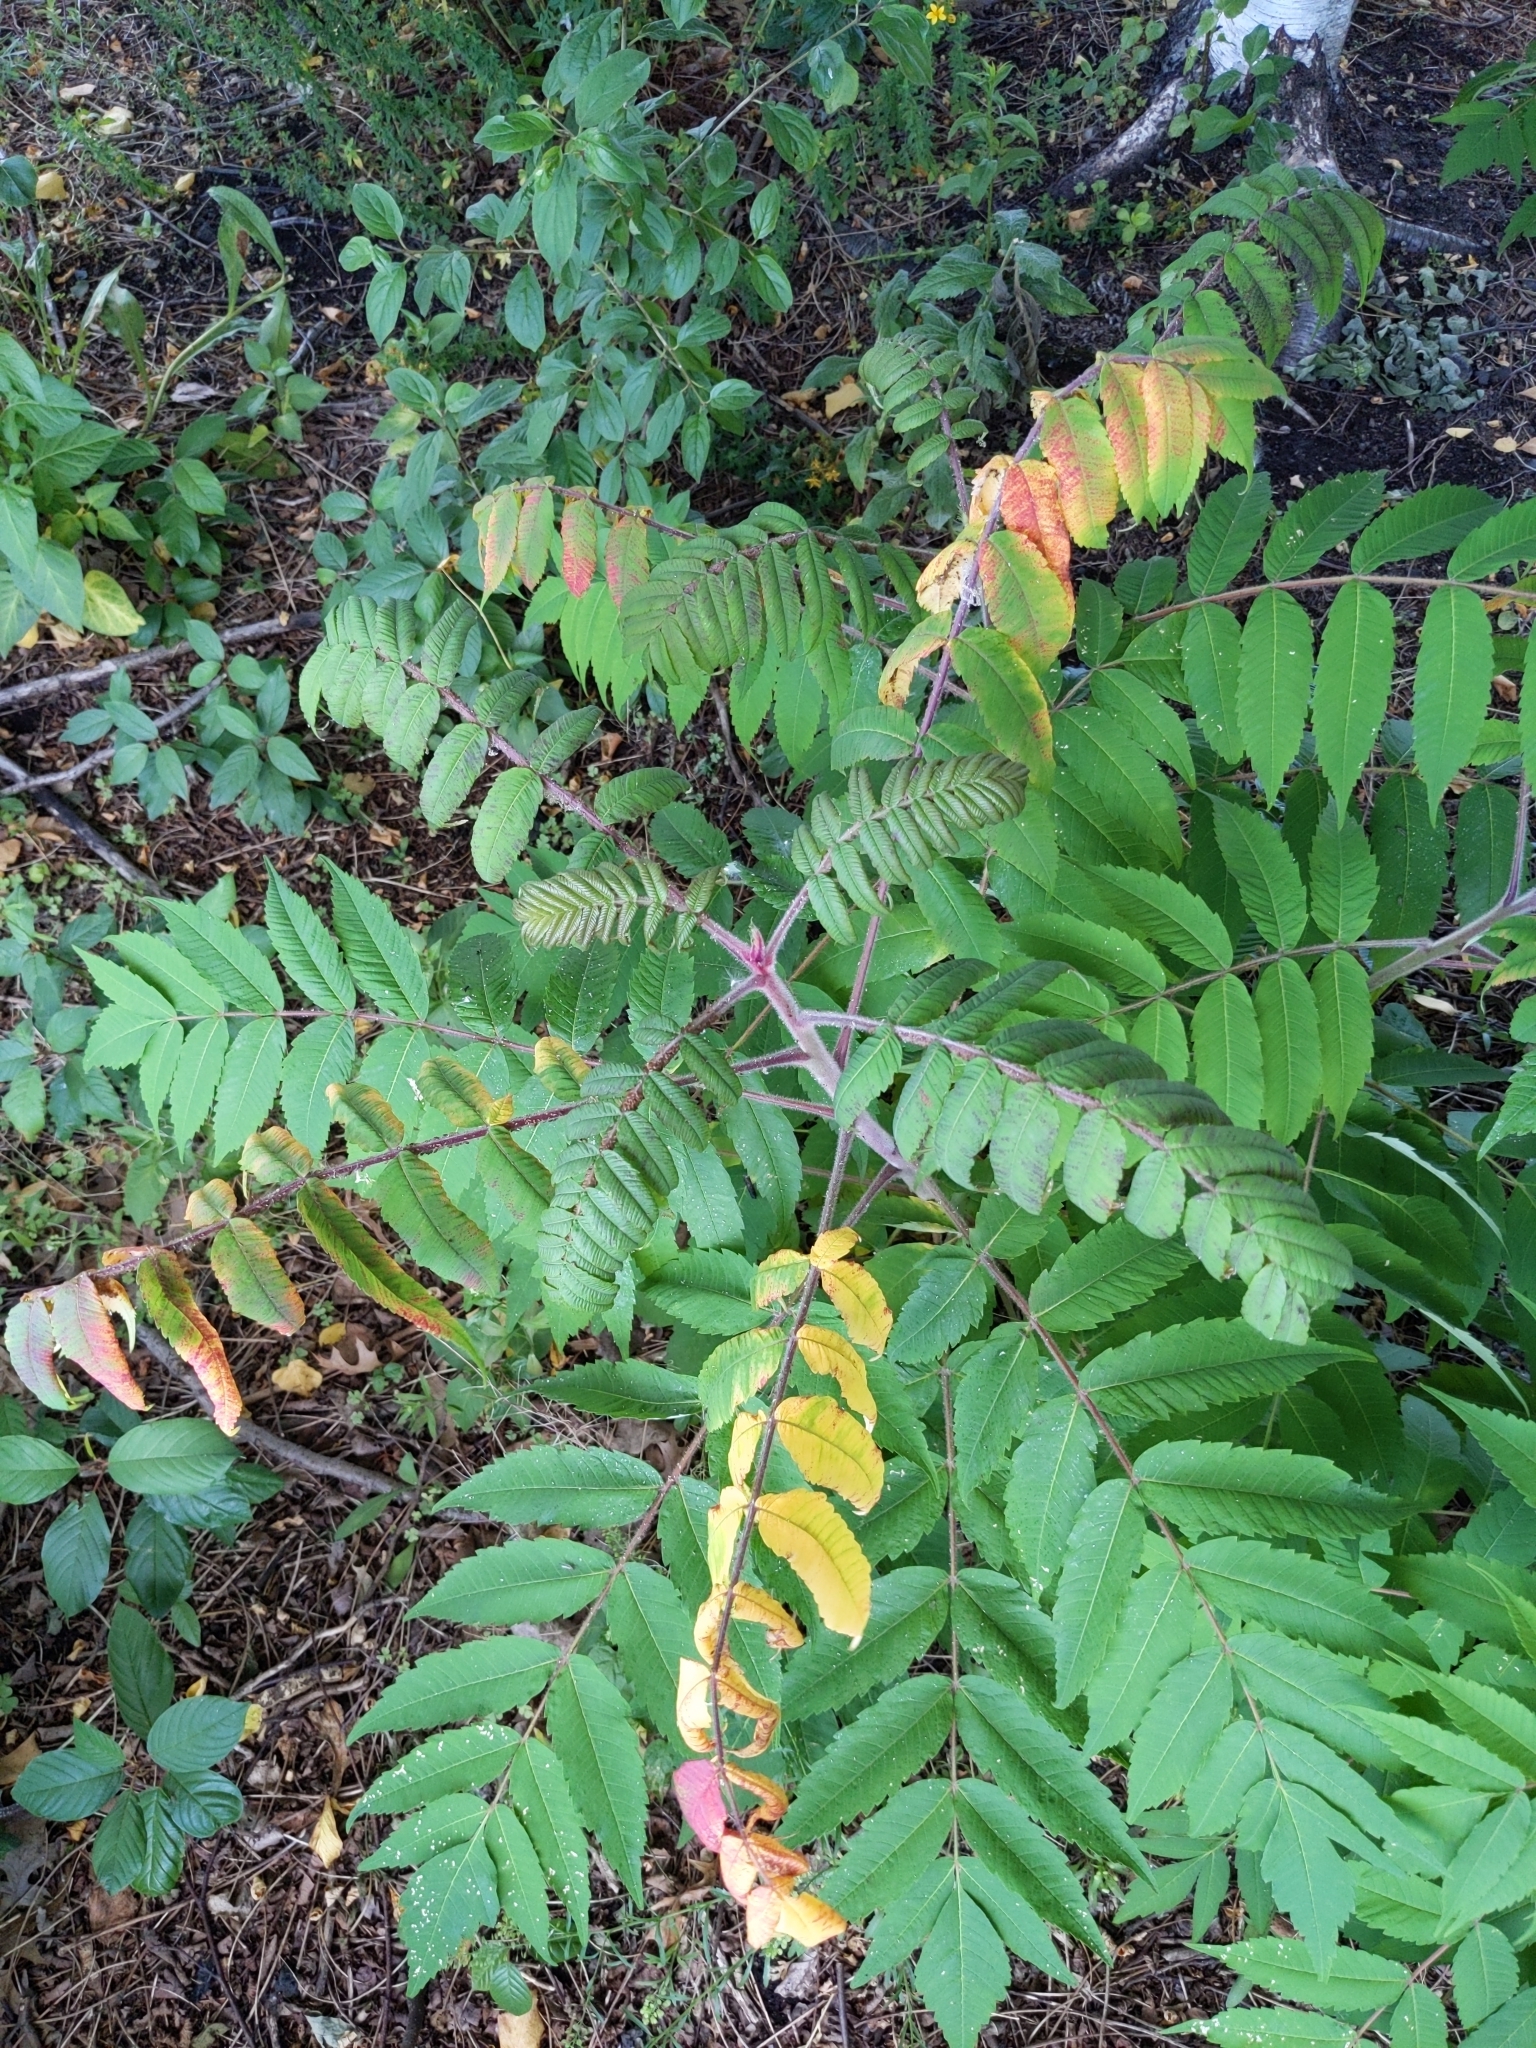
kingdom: Plantae
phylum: Tracheophyta
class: Magnoliopsida
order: Sapindales
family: Anacardiaceae
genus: Rhus
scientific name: Rhus typhina
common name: Staghorn sumac
